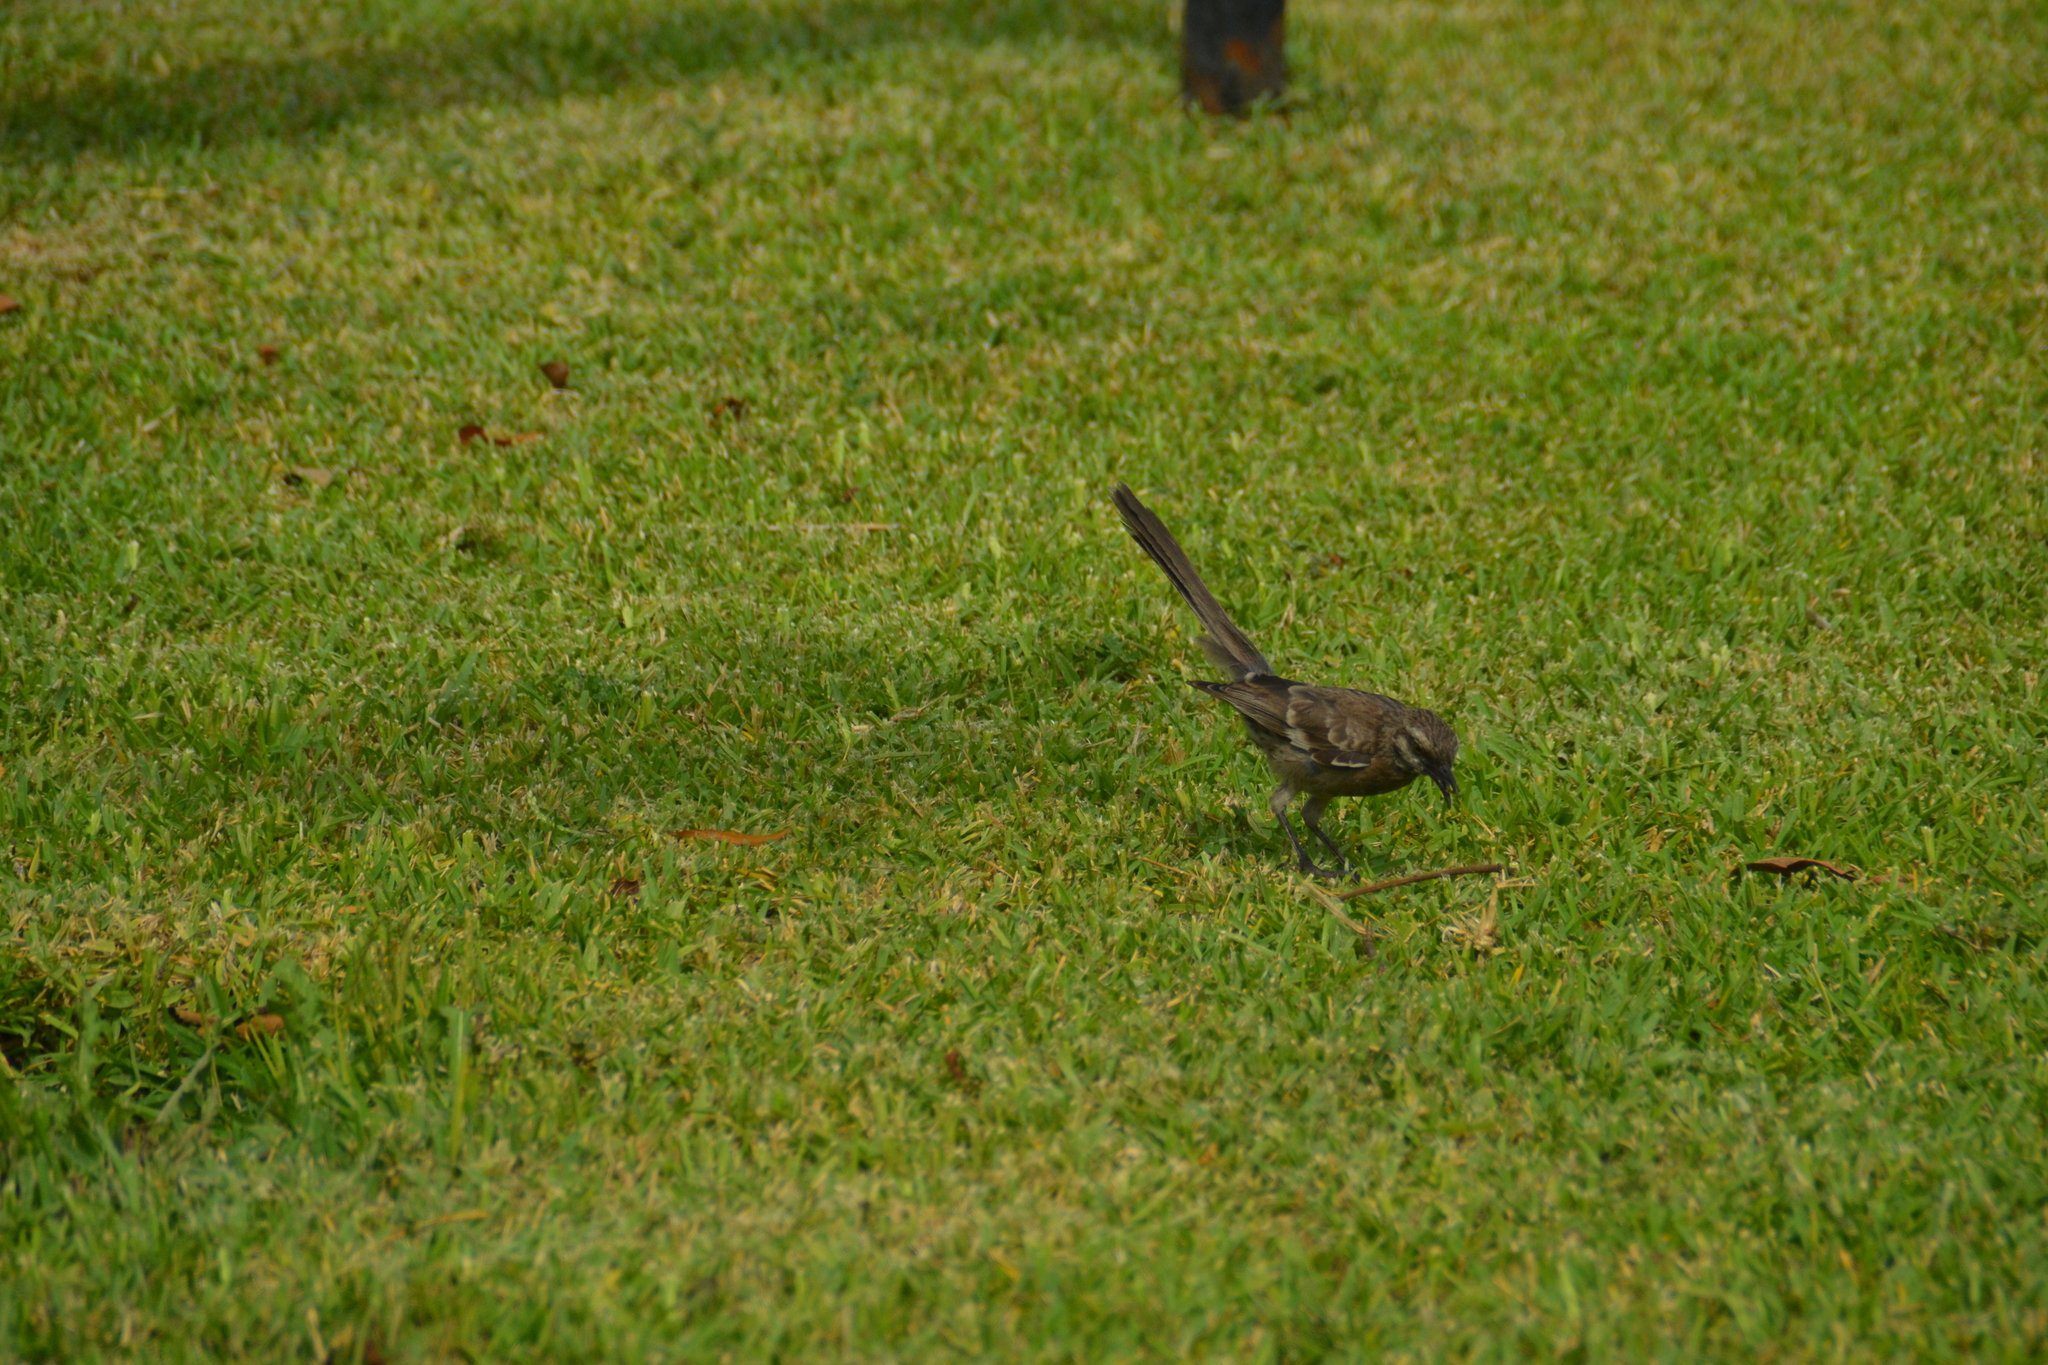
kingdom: Animalia
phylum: Chordata
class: Aves
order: Passeriformes
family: Mimidae
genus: Mimus
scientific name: Mimus longicaudatus
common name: Long-tailed mockingbird
